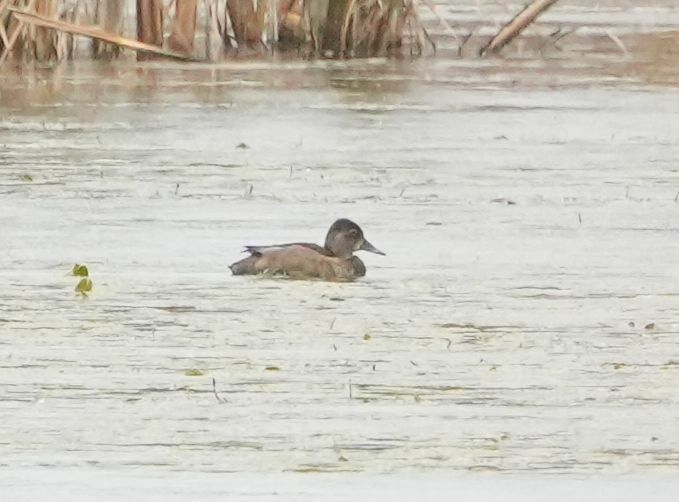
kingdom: Animalia
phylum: Chordata
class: Aves
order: Anseriformes
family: Anatidae
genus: Aythya
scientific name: Aythya collaris
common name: Ring-necked duck
